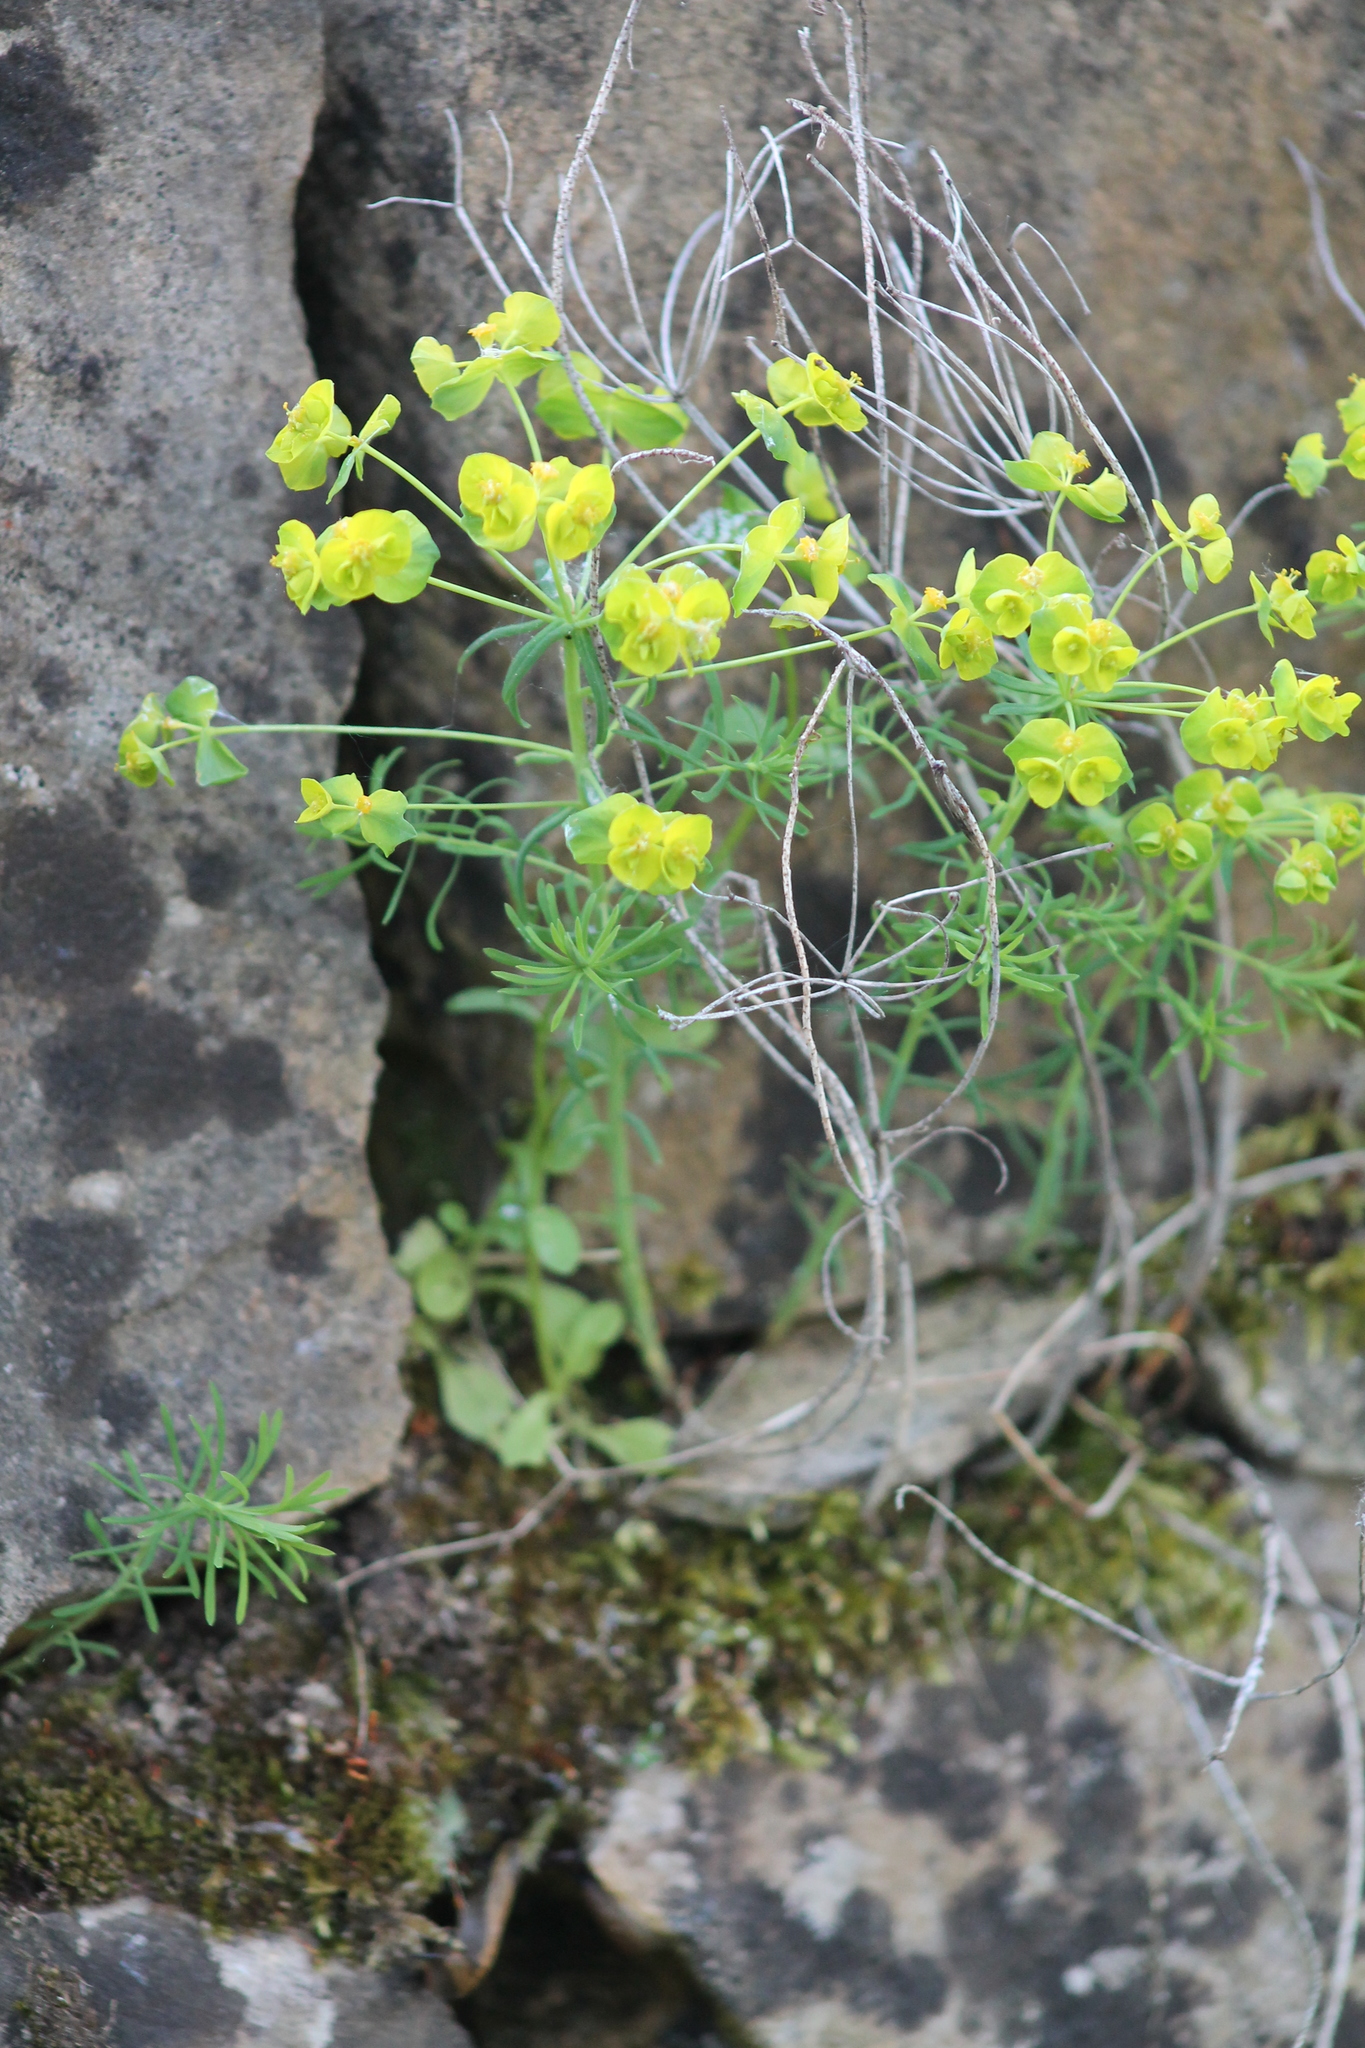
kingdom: Plantae
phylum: Tracheophyta
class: Magnoliopsida
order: Malpighiales
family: Euphorbiaceae
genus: Euphorbia
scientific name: Euphorbia cyparissias
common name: Cypress spurge
